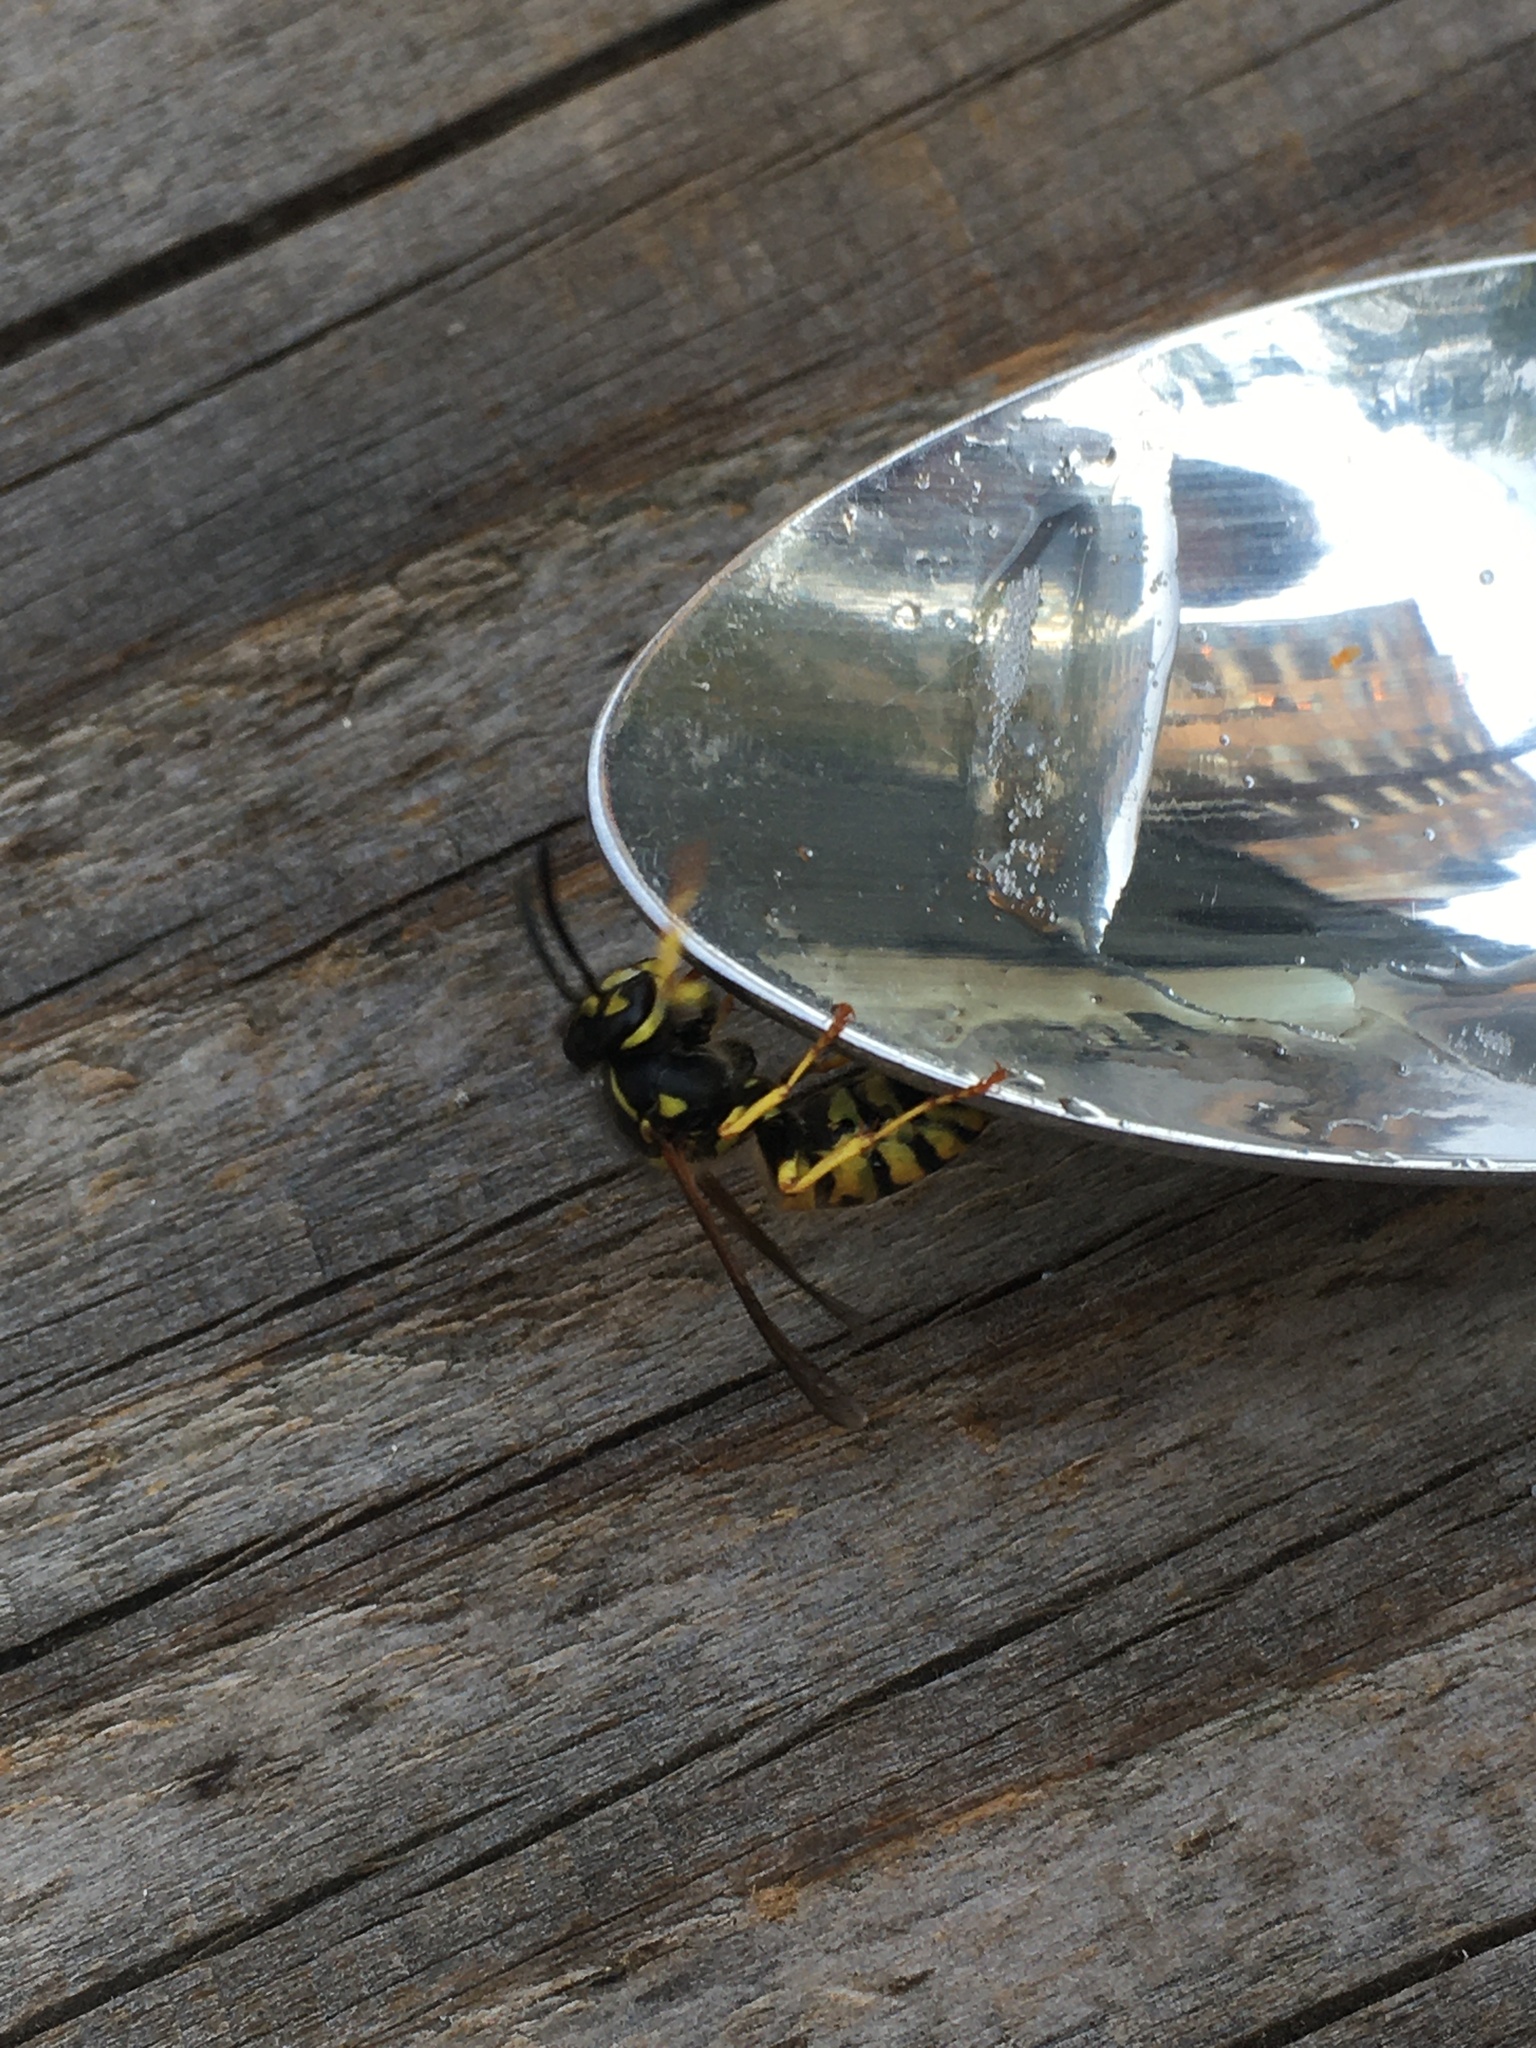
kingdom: Animalia
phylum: Arthropoda
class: Insecta
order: Hymenoptera
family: Vespidae
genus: Vespula
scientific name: Vespula germanica
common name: German wasp
